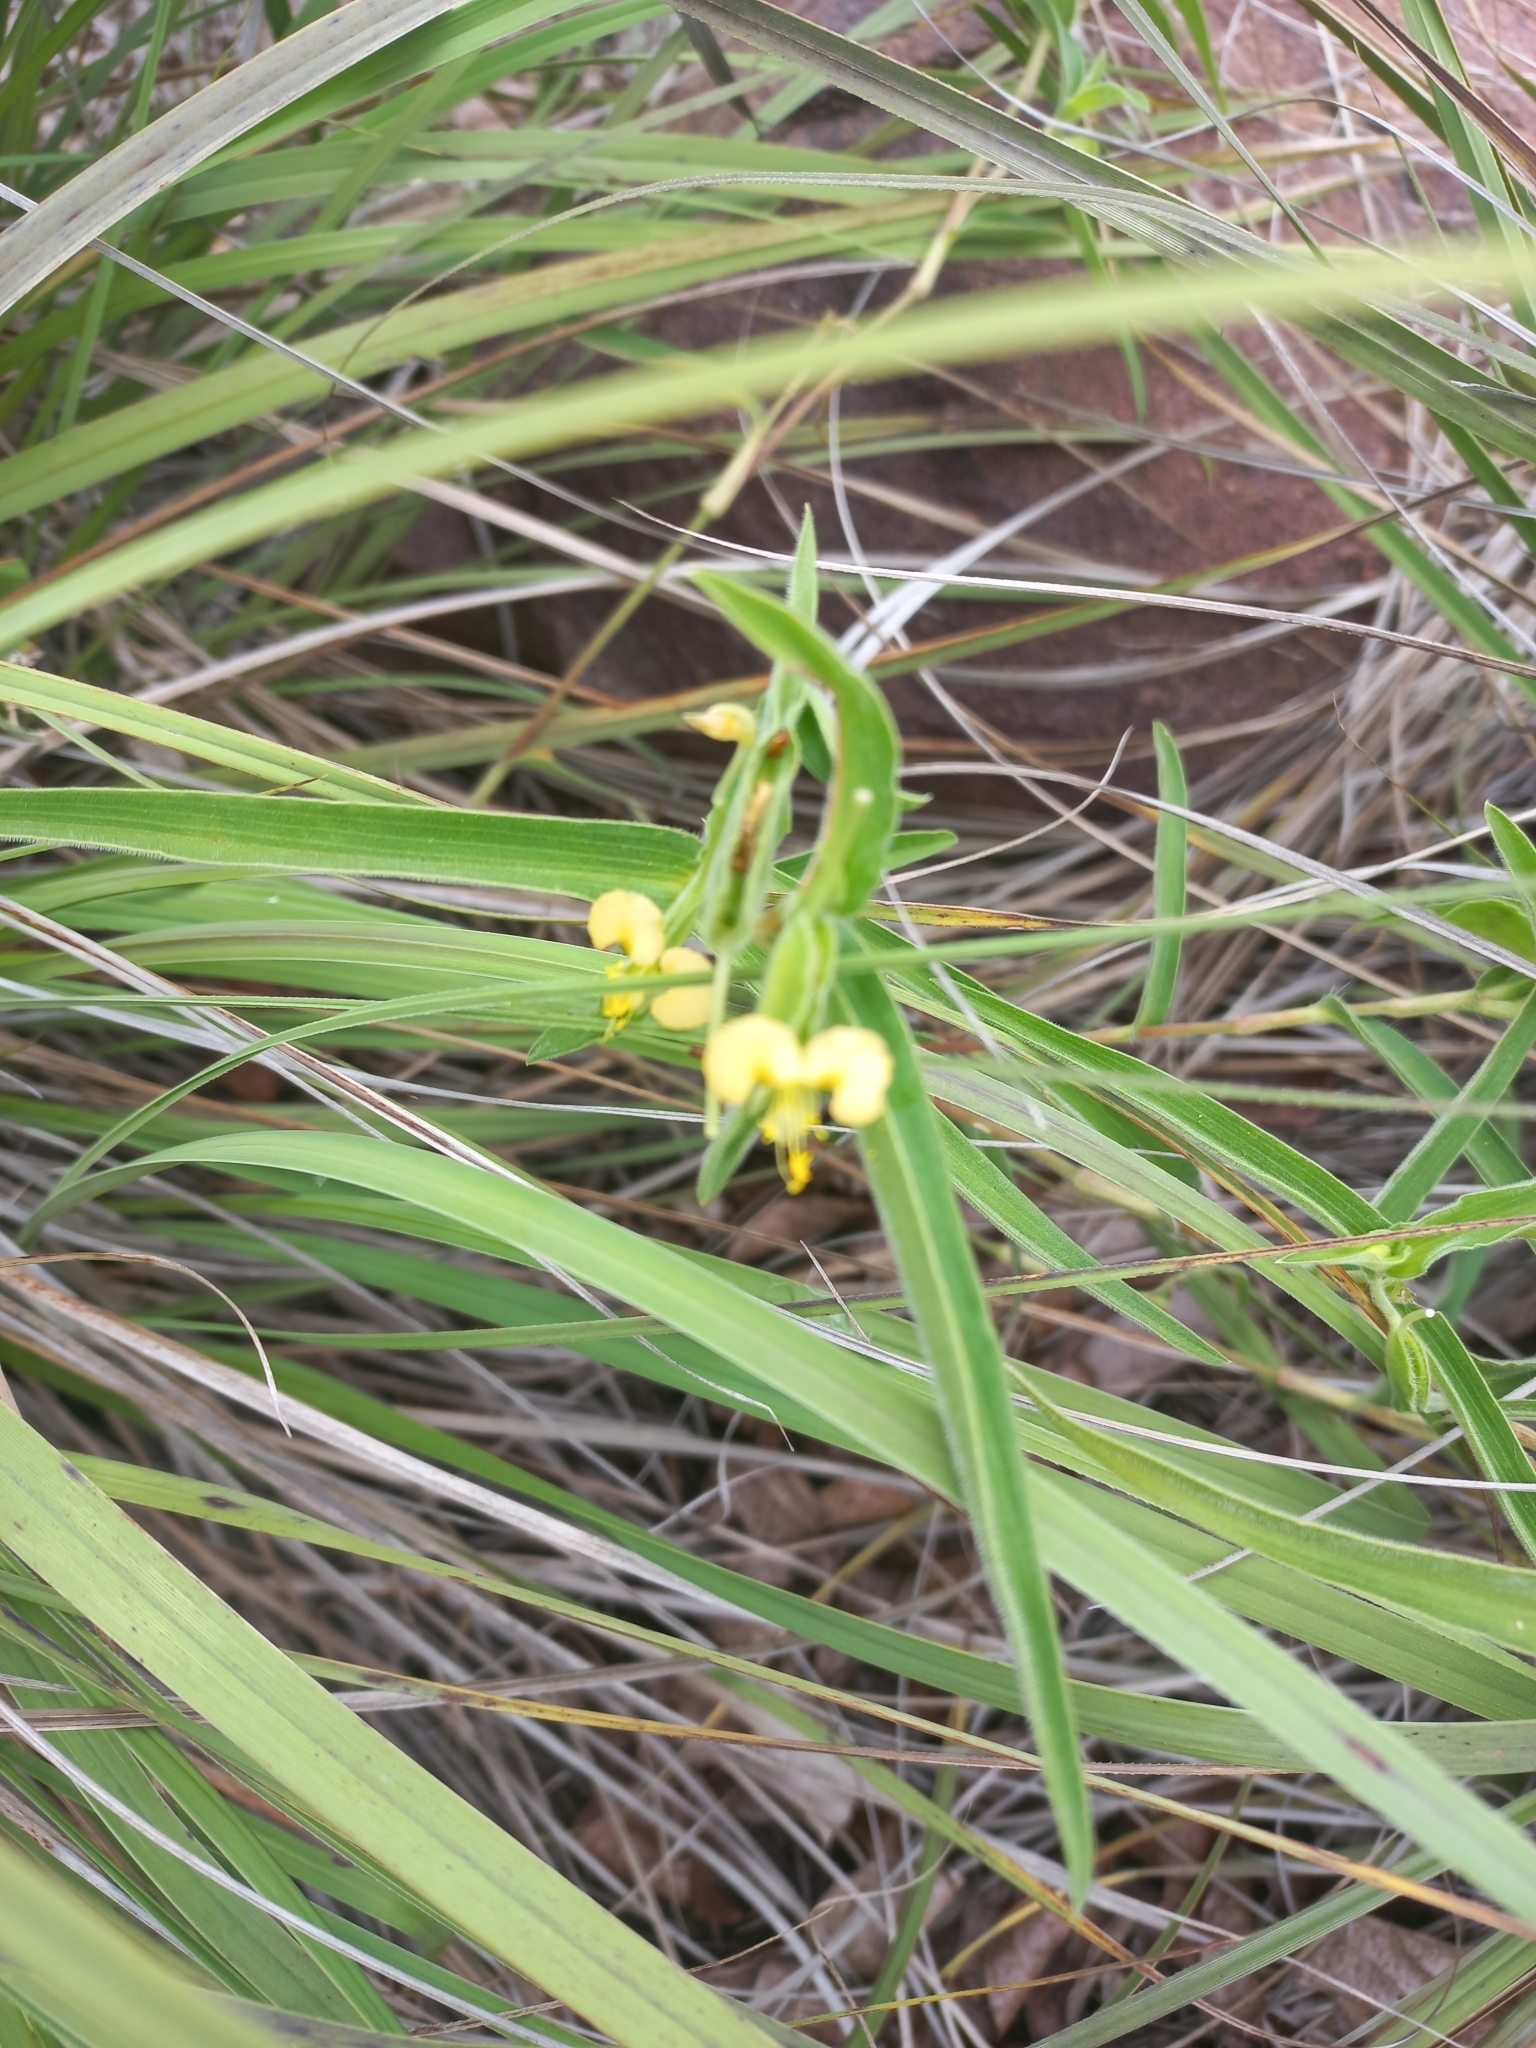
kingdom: Plantae
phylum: Tracheophyta
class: Liliopsida
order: Commelinales
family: Commelinaceae
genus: Commelina
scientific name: Commelina africana
